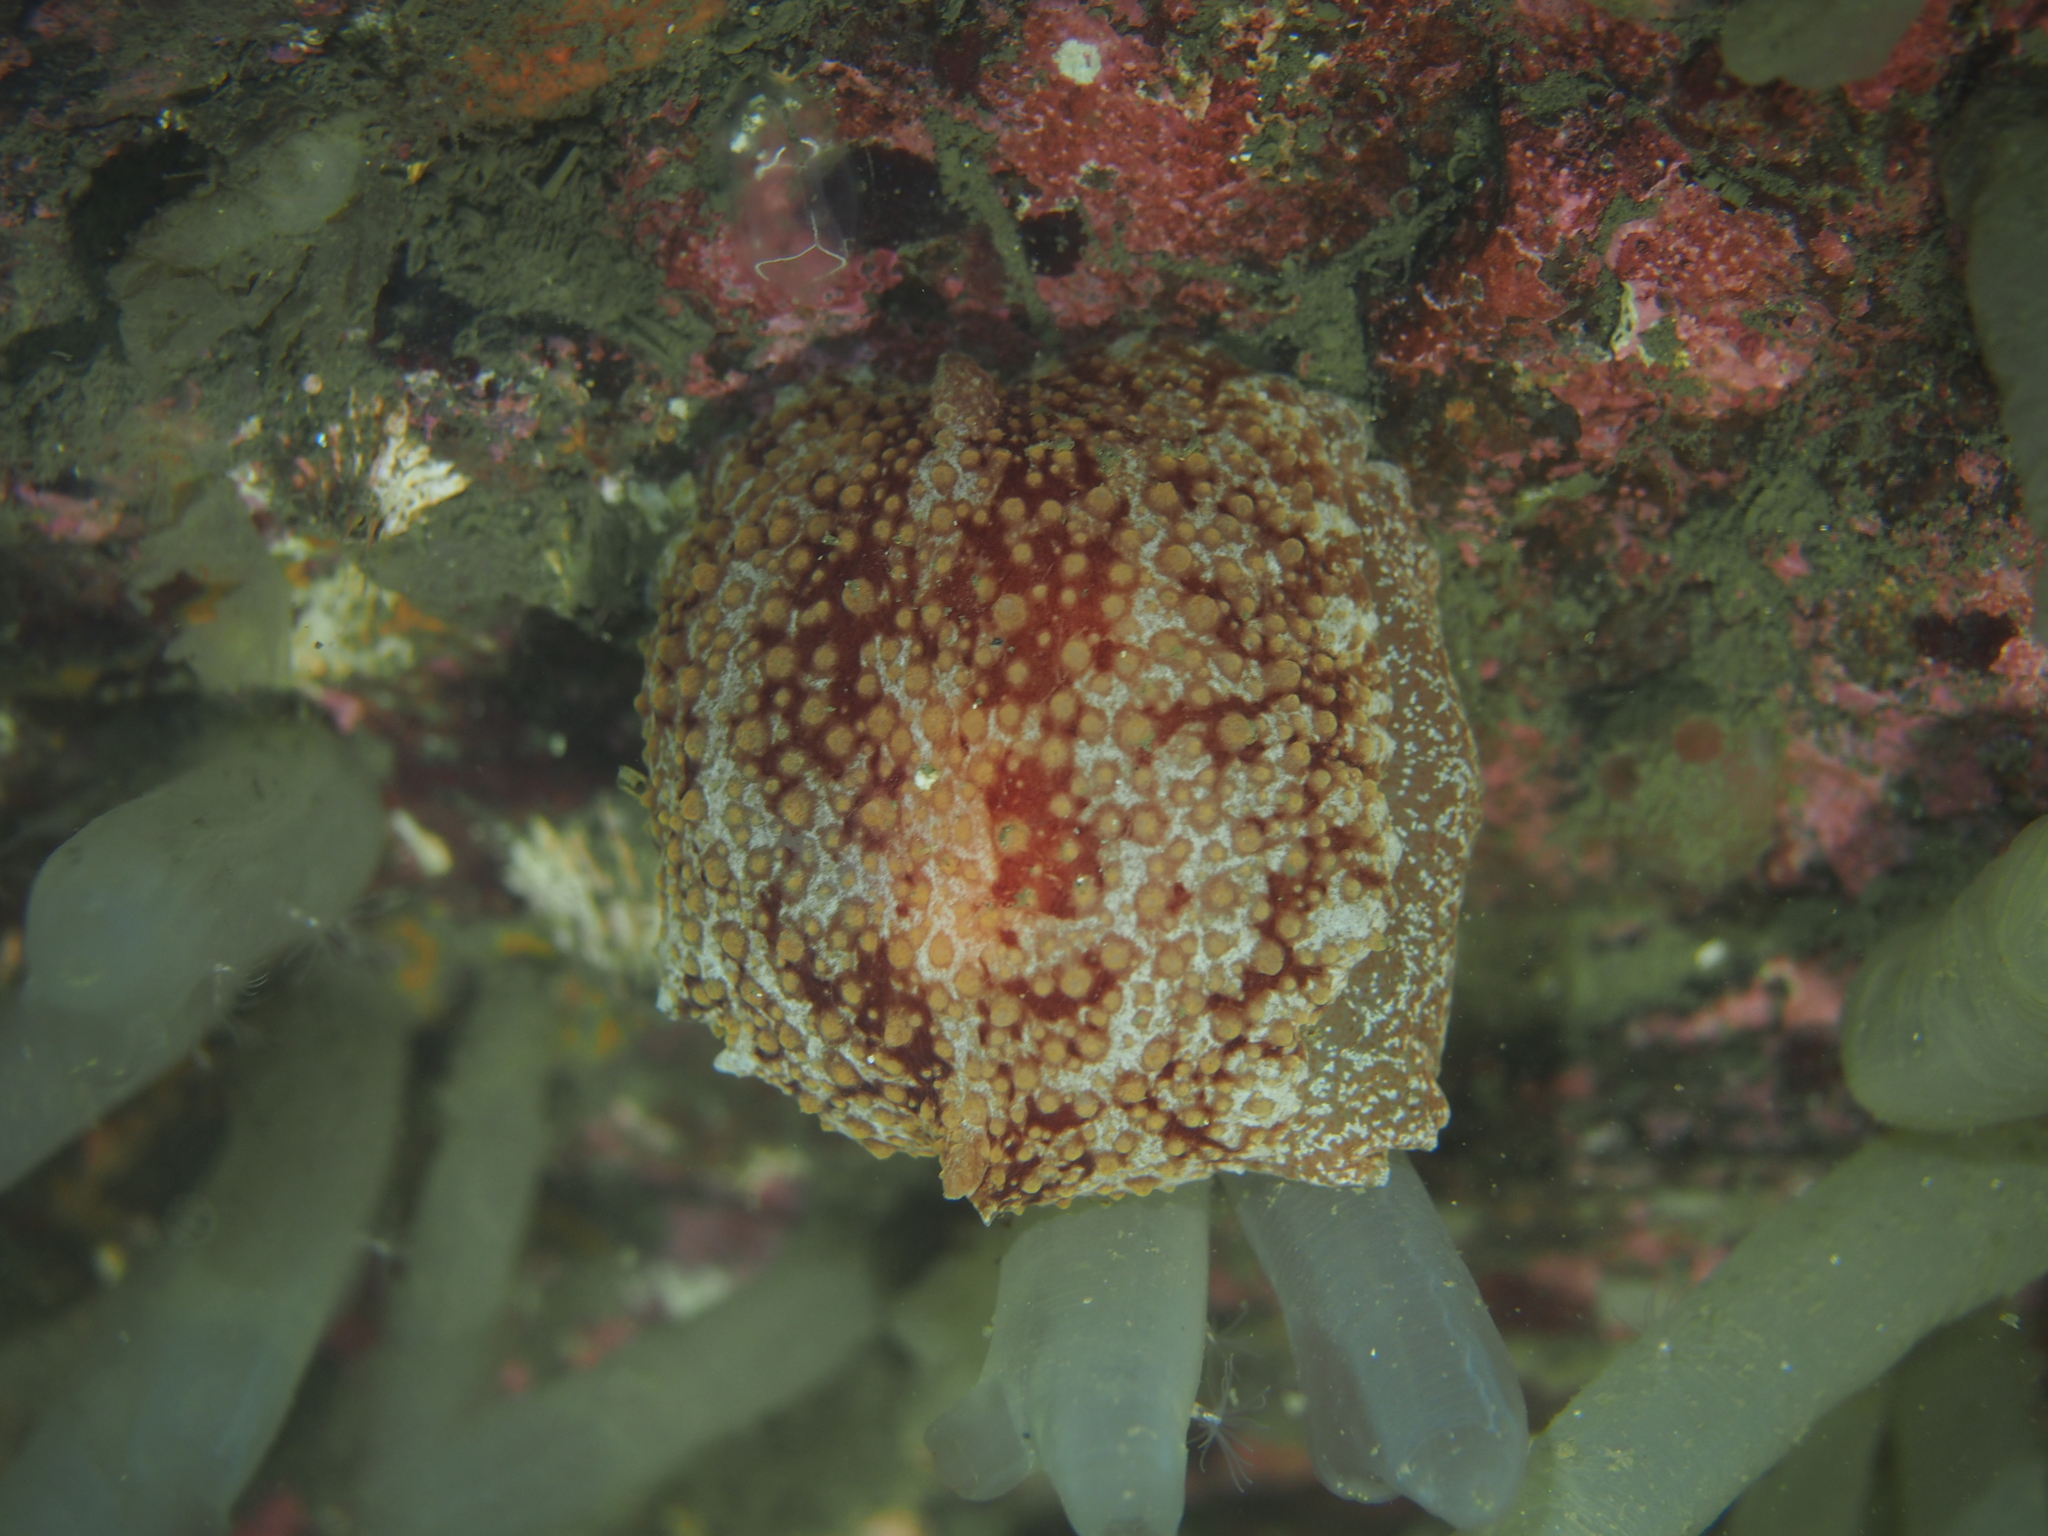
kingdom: Animalia
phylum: Mollusca
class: Gastropoda
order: Pleurobranchida
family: Pleurobranchidae
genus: Pleurobranchus
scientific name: Pleurobranchus membranaceus
